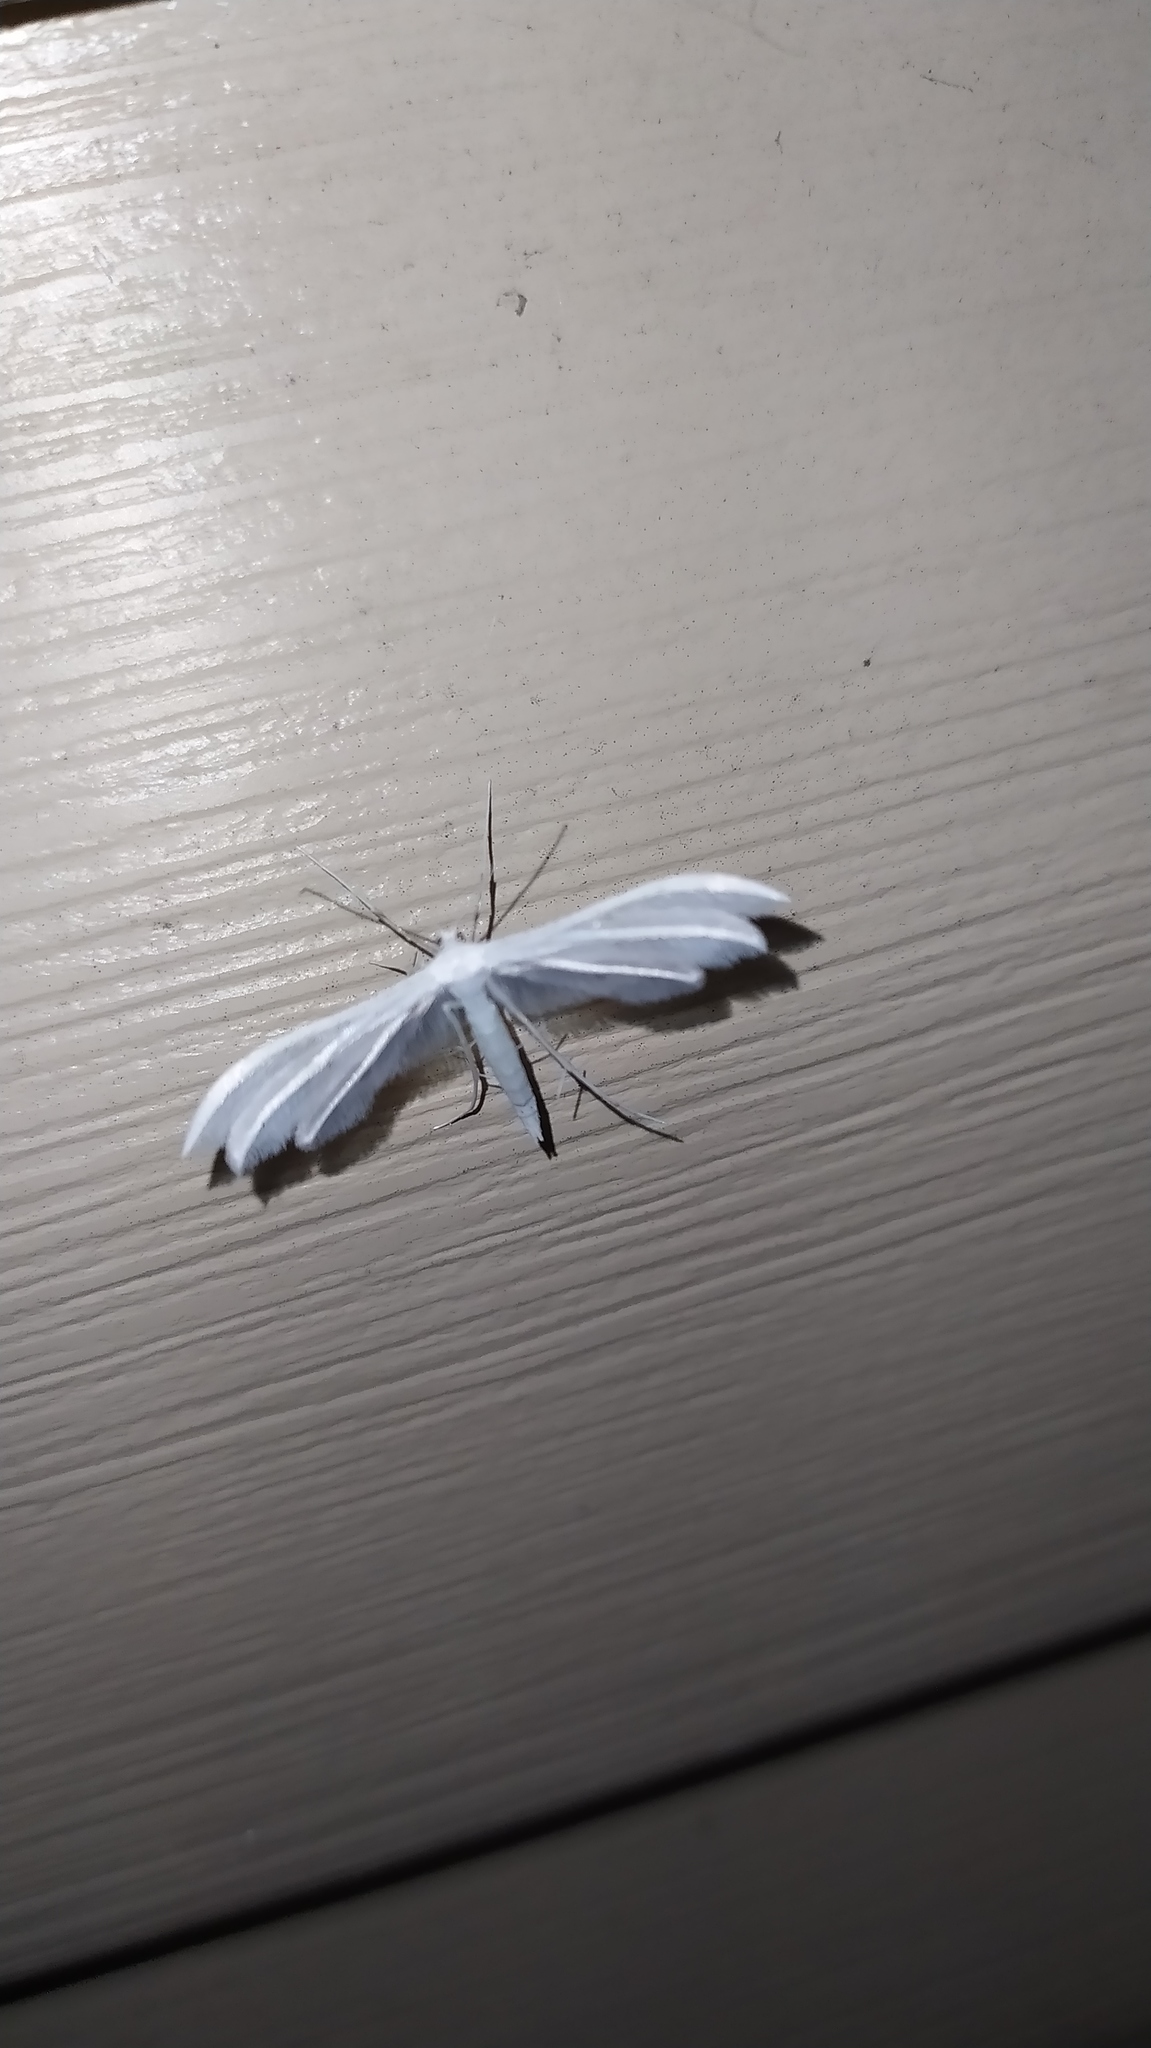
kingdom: Animalia
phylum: Arthropoda
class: Insecta
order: Lepidoptera
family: Pterophoridae
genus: Pterophorus
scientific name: Pterophorus pentadactyla
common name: White plume moth
